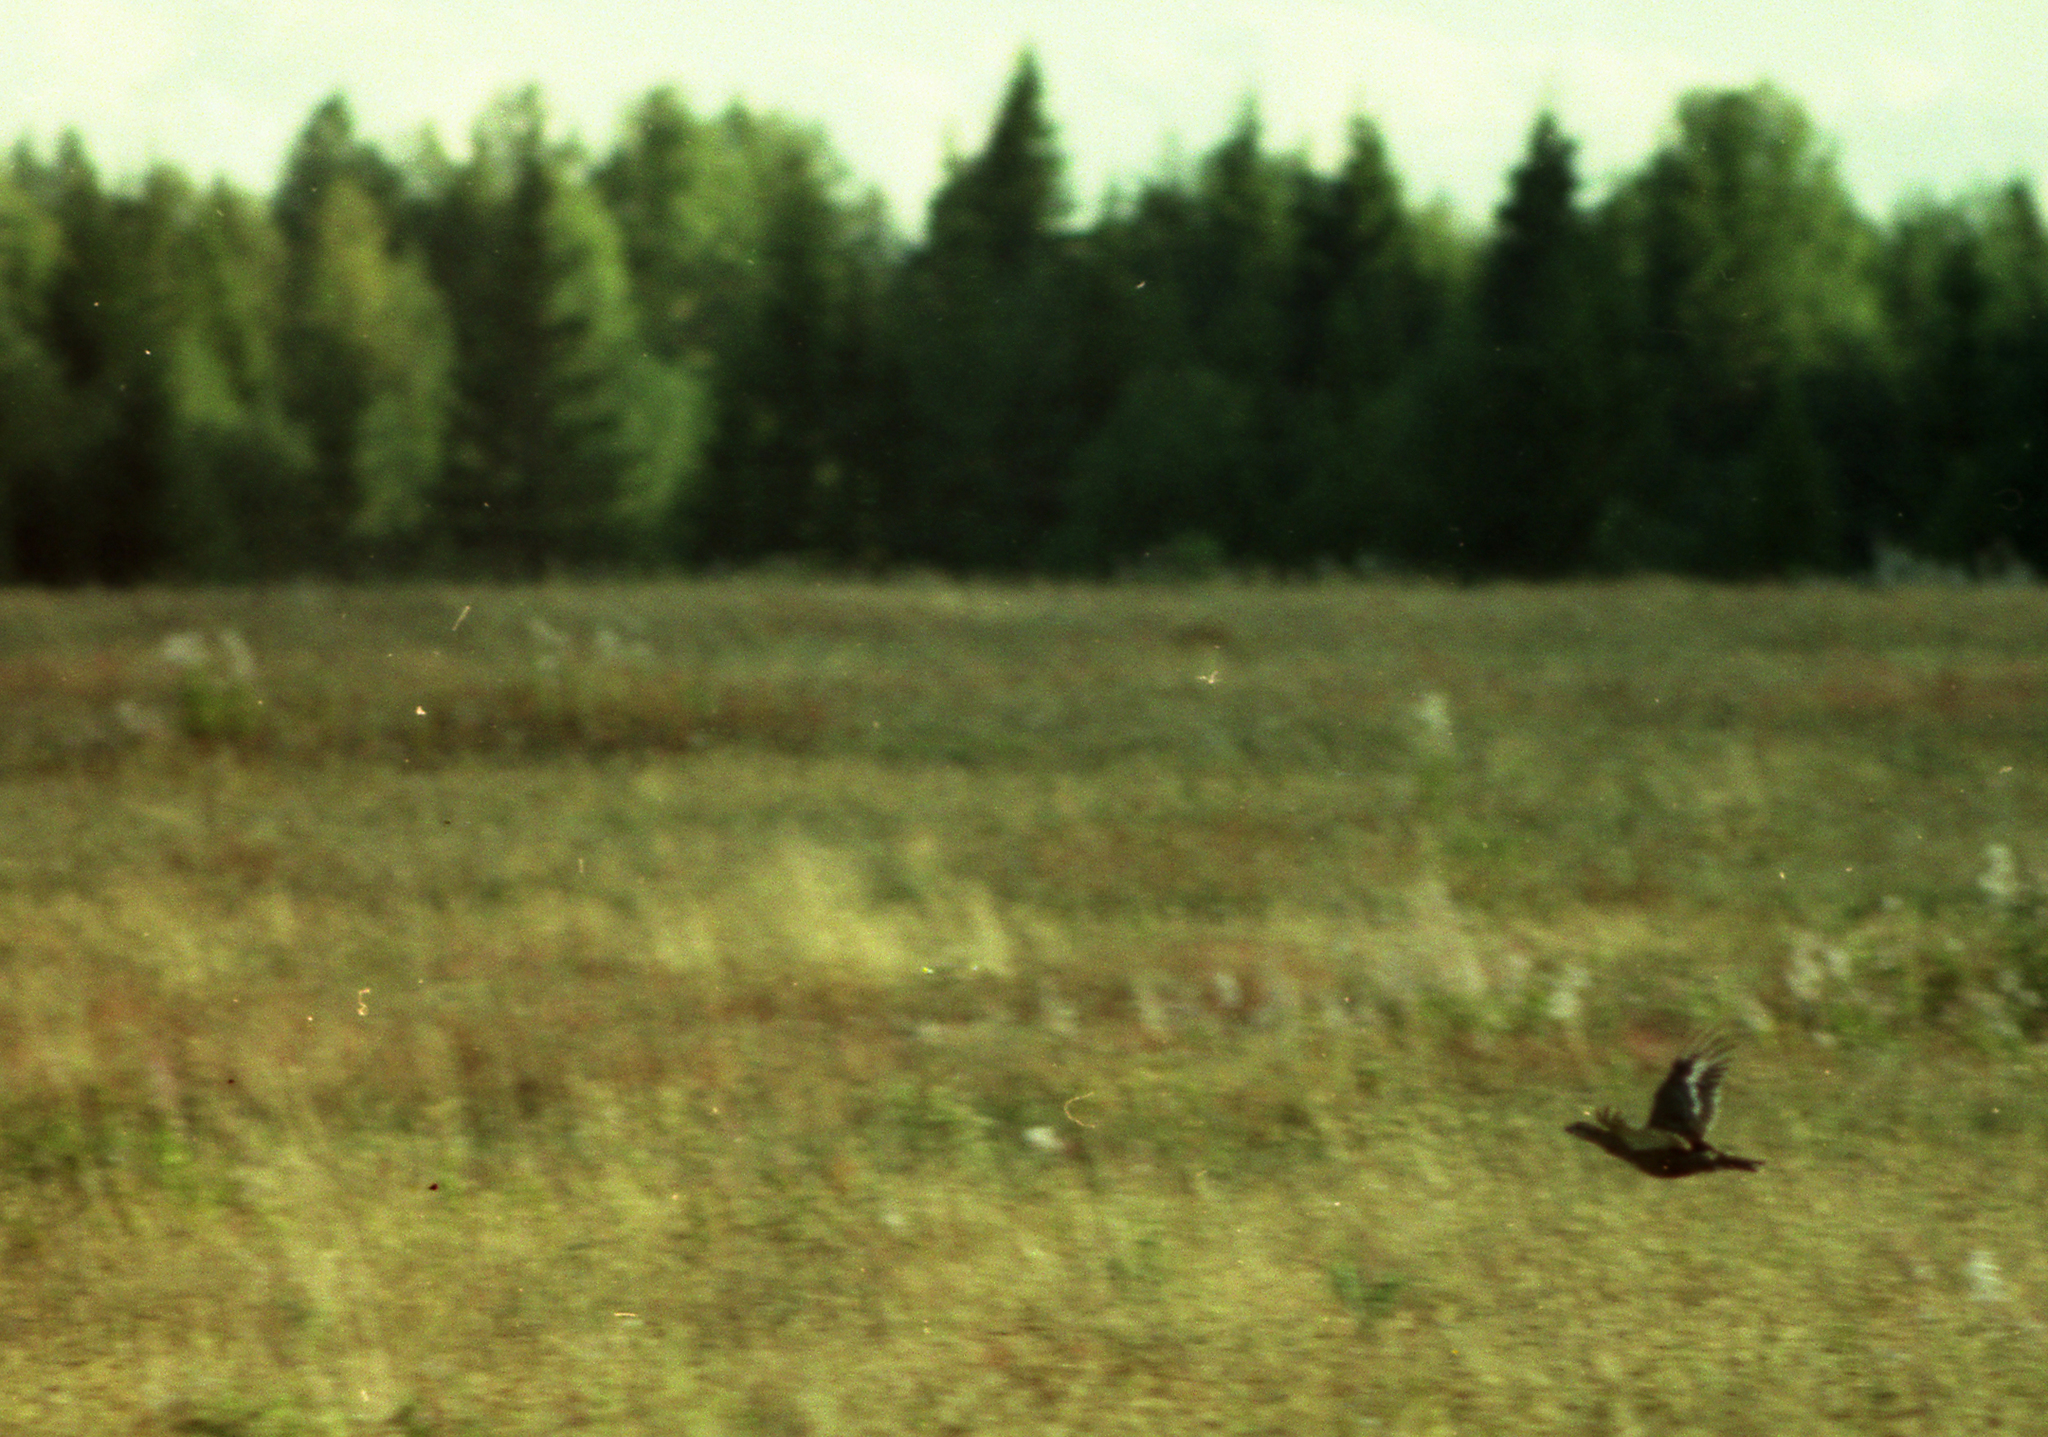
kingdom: Animalia
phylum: Chordata
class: Aves
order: Galliformes
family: Phasianidae
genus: Lyrurus
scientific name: Lyrurus tetrix
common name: Black grouse
